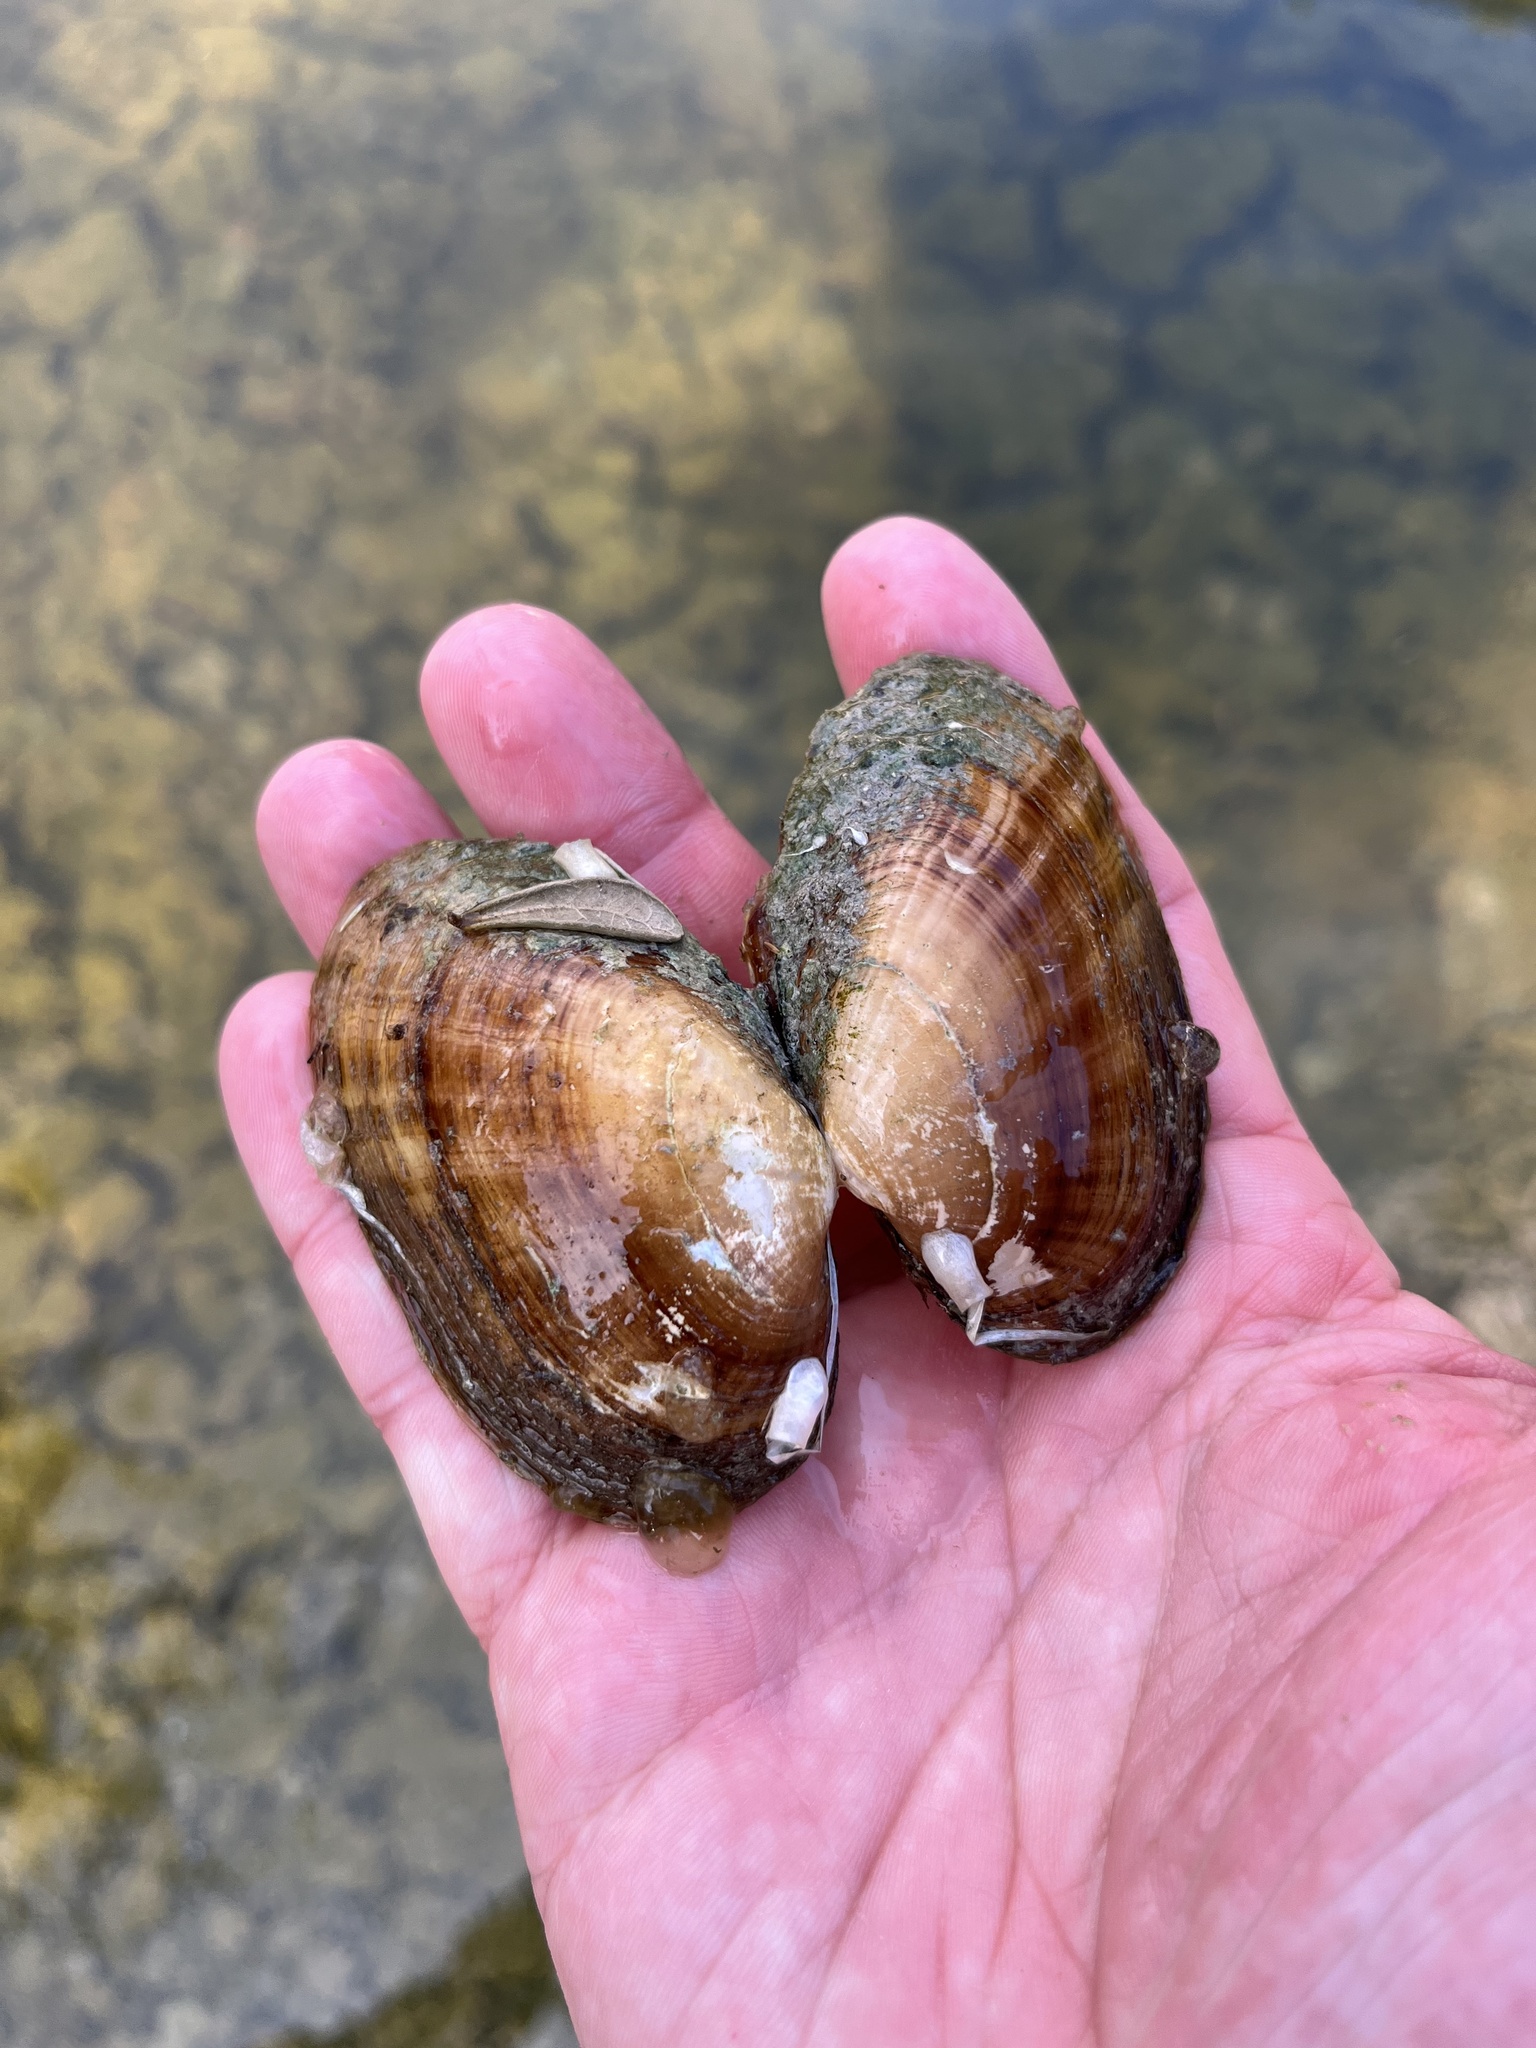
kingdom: Animalia
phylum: Mollusca
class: Bivalvia
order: Unionida
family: Unionidae
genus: Lampsilis
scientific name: Lampsilis bracteata
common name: Texas fatmucket
